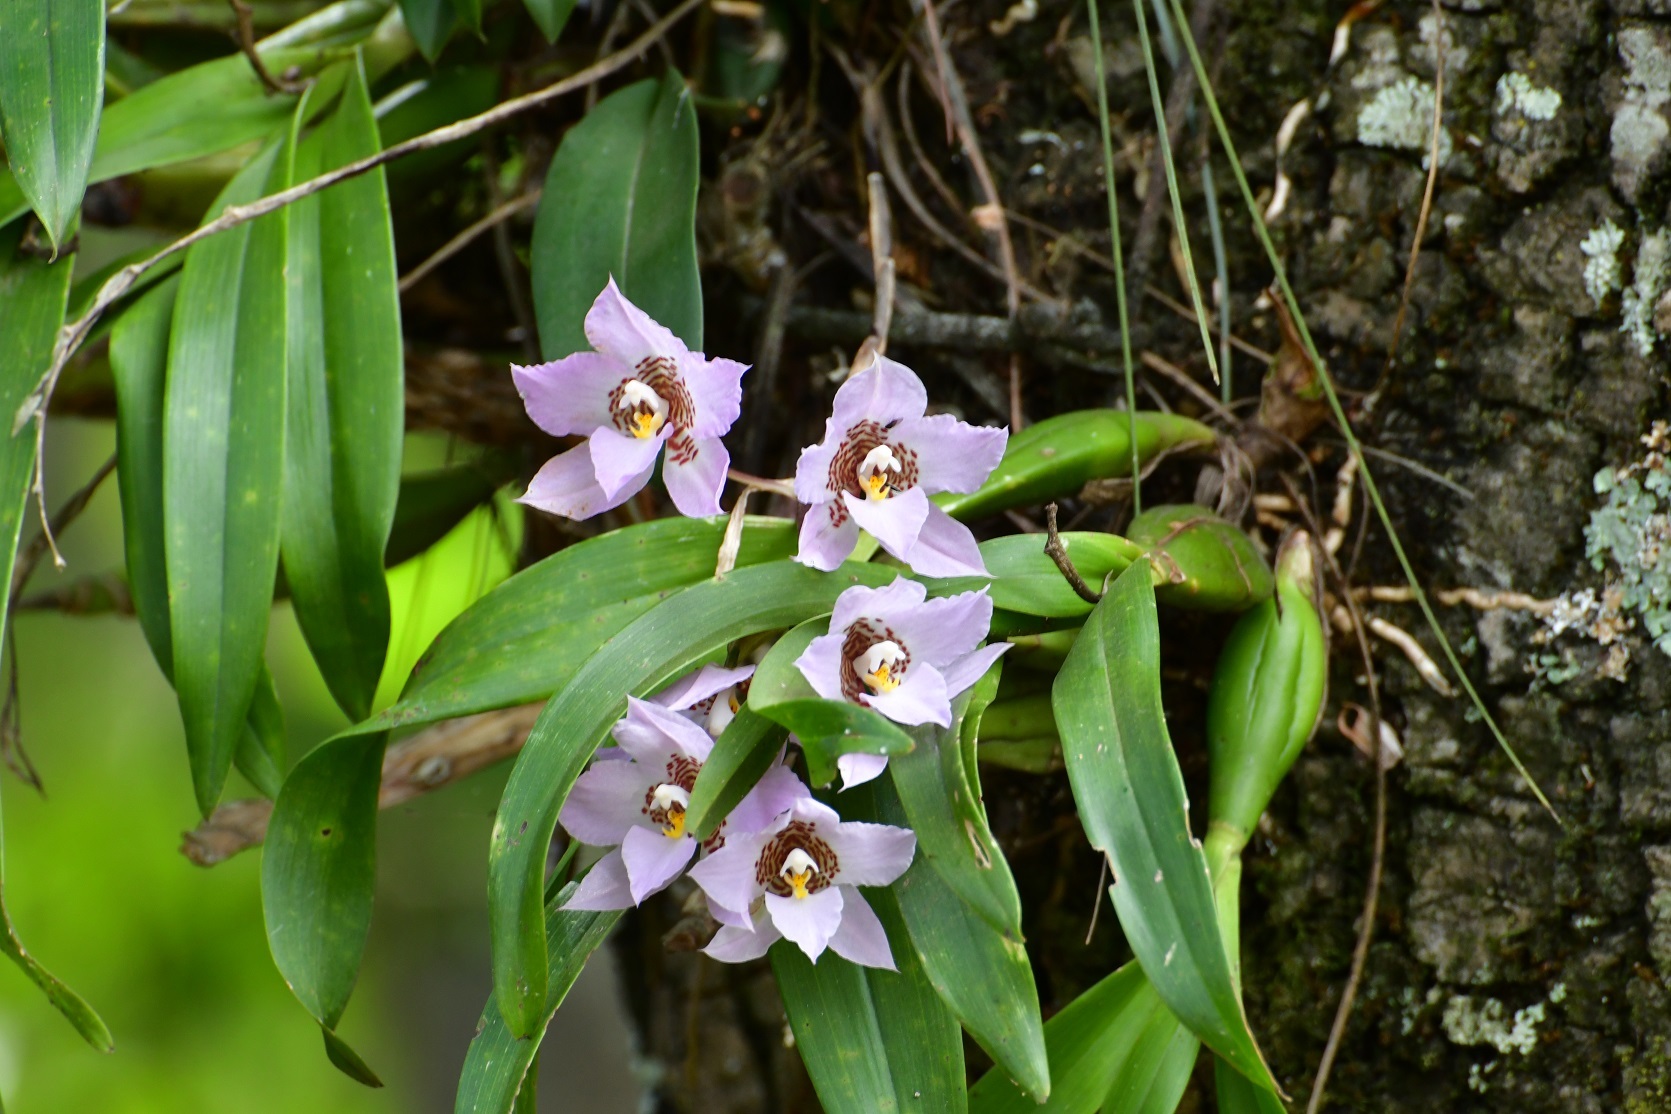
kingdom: Plantae
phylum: Tracheophyta
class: Liliopsida
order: Asparagales
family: Orchidaceae
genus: Rhynchostele
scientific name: Rhynchostele cervantesii
